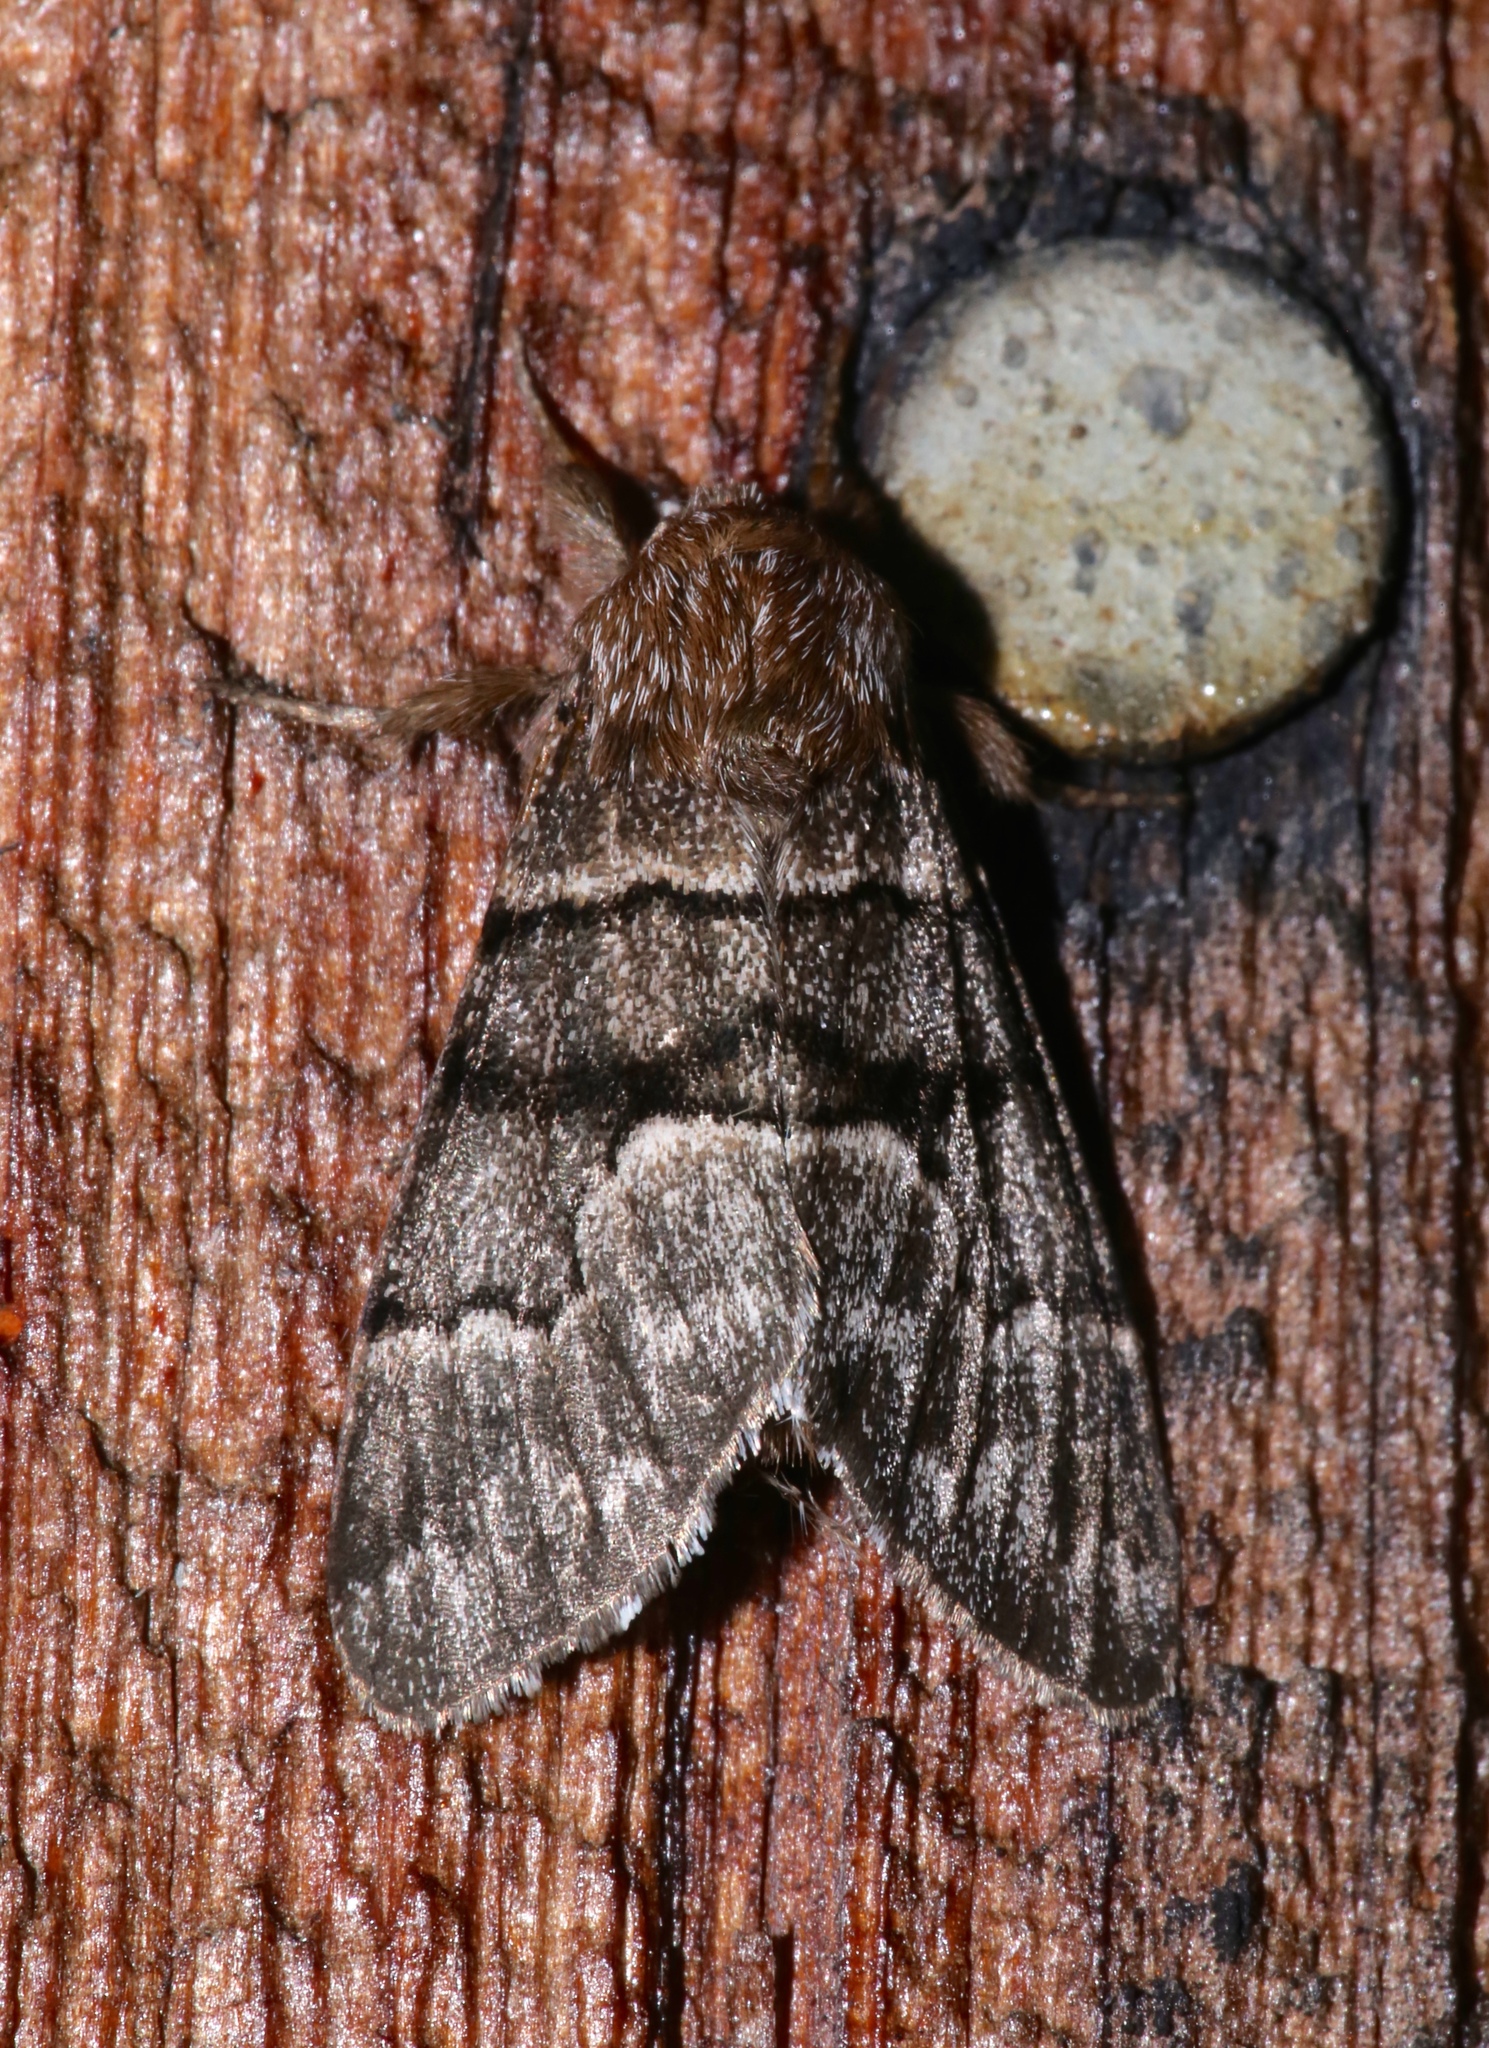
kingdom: Animalia
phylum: Arthropoda
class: Insecta
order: Lepidoptera
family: Noctuidae
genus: Panthea
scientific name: Panthea furcilla
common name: Eastern panthea moth
